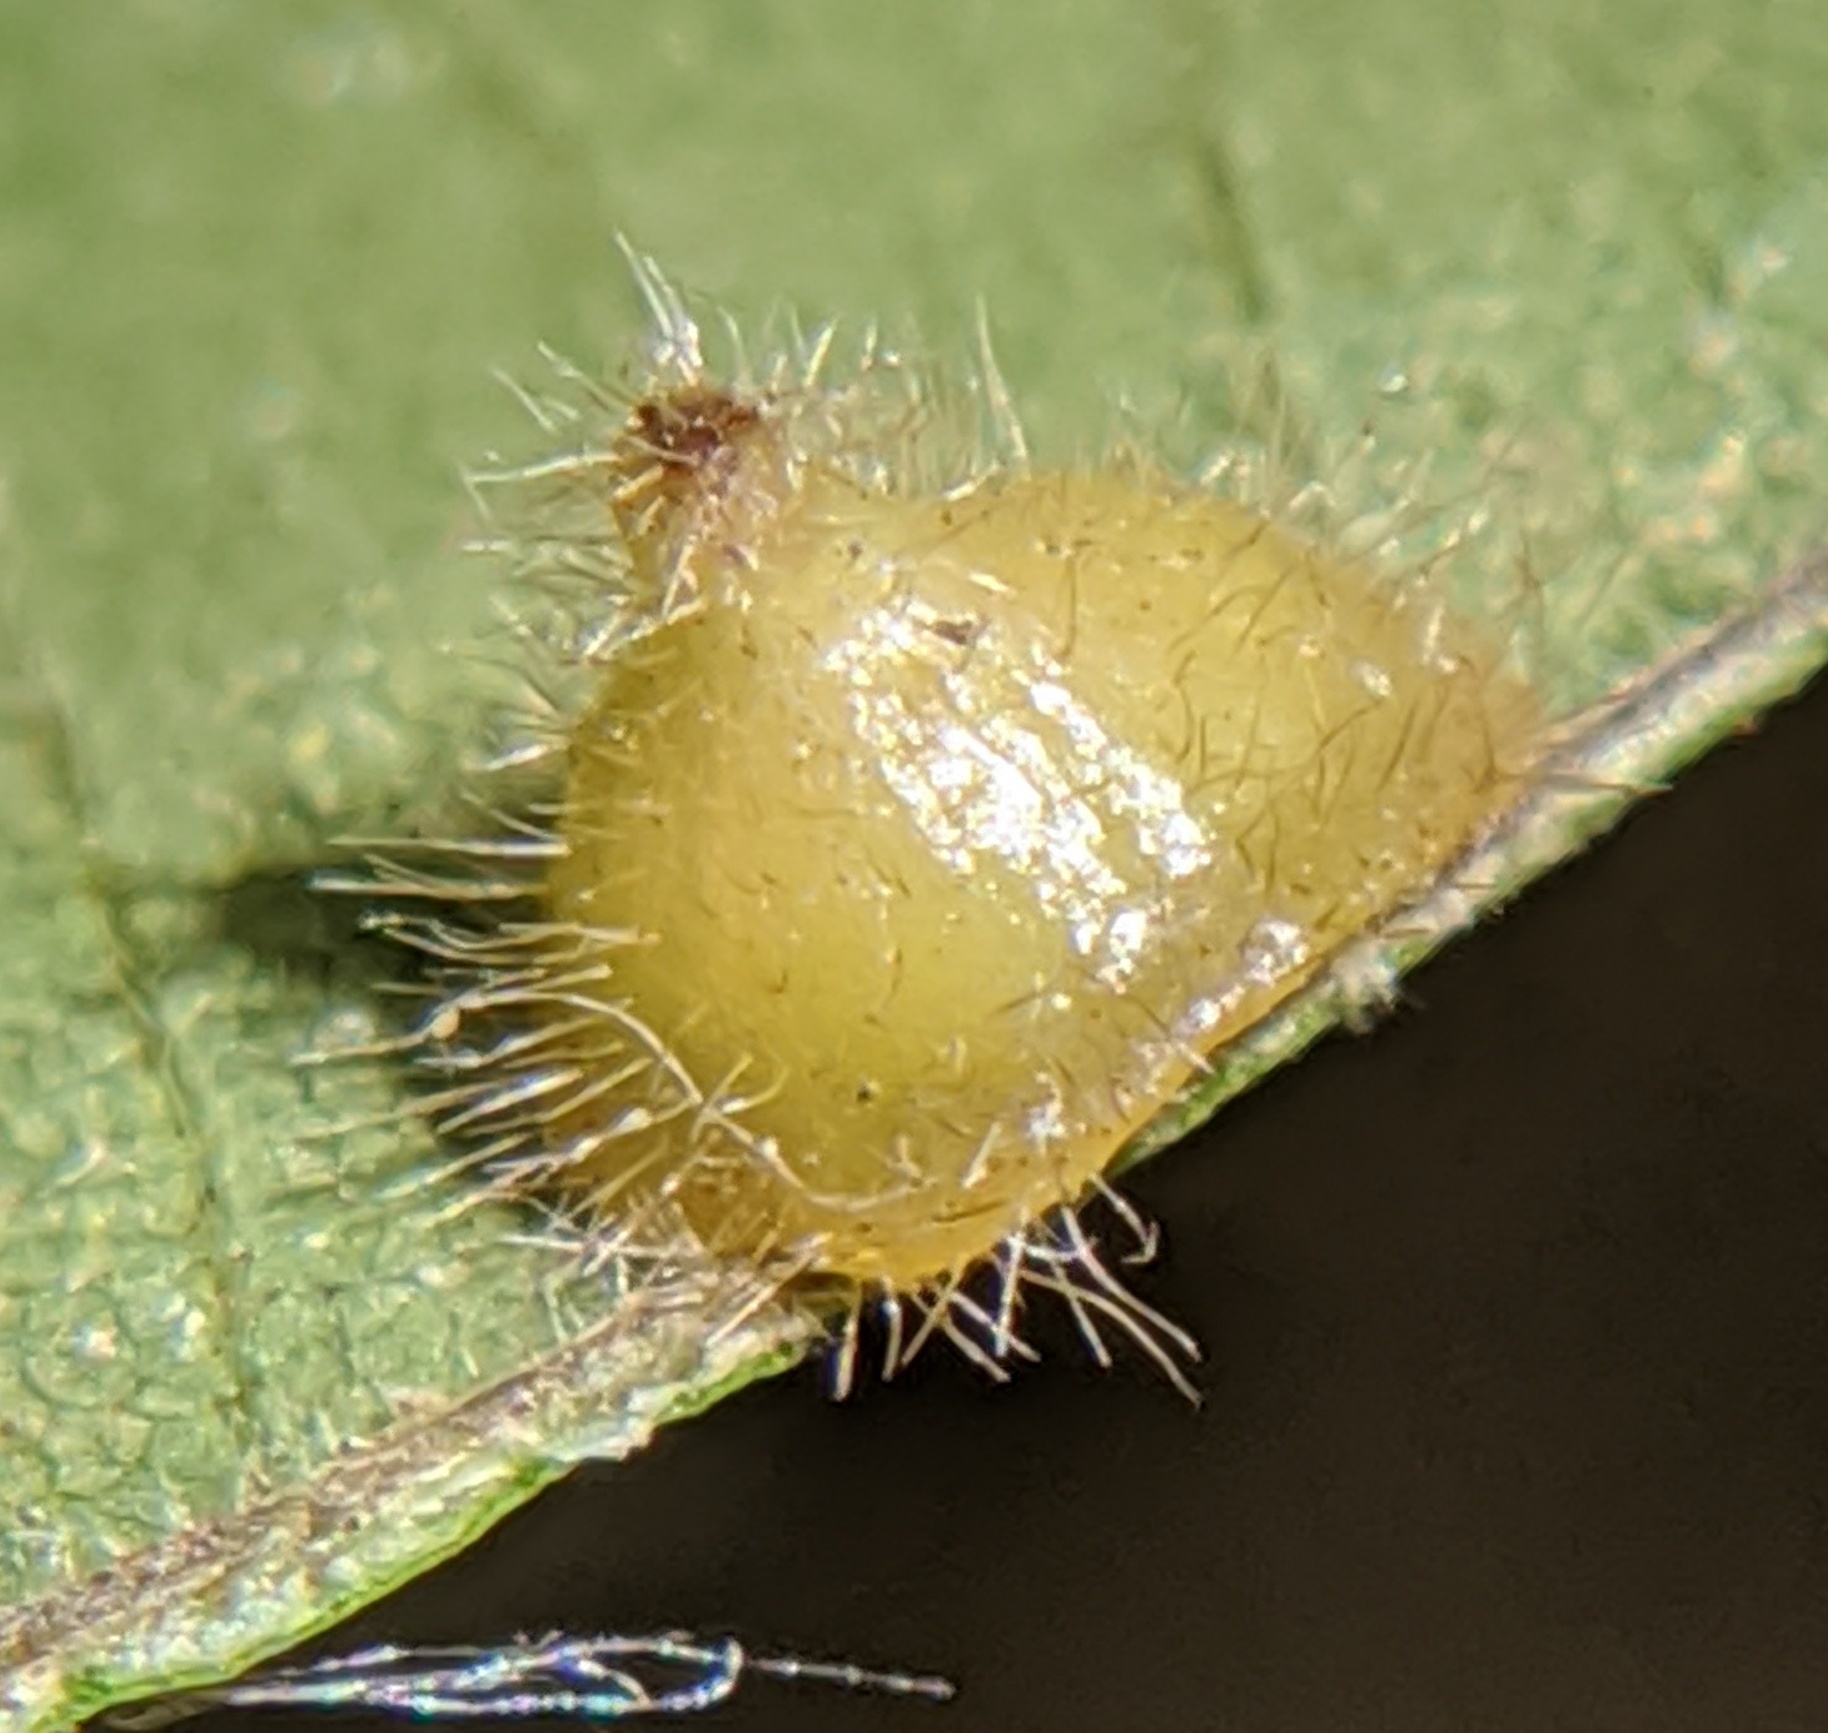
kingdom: Animalia
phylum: Arthropoda
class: Insecta
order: Diptera
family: Cecidomyiidae
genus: Caryomyia
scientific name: Caryomyia marginata
